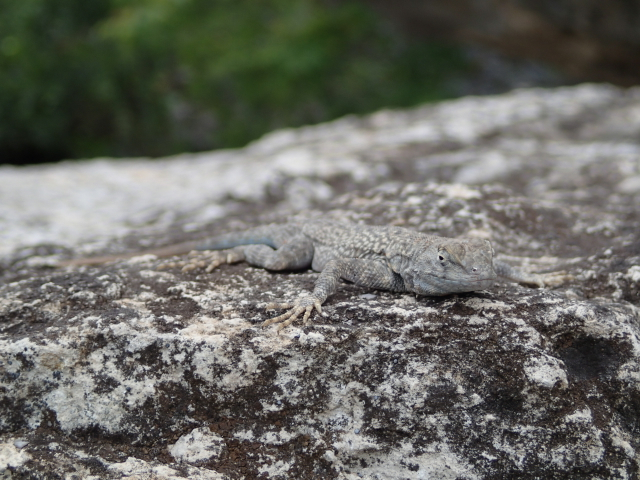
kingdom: Animalia
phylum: Chordata
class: Squamata
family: Phrynosomatidae
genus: Sceloporus
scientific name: Sceloporus merriami
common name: Canyon lizard
